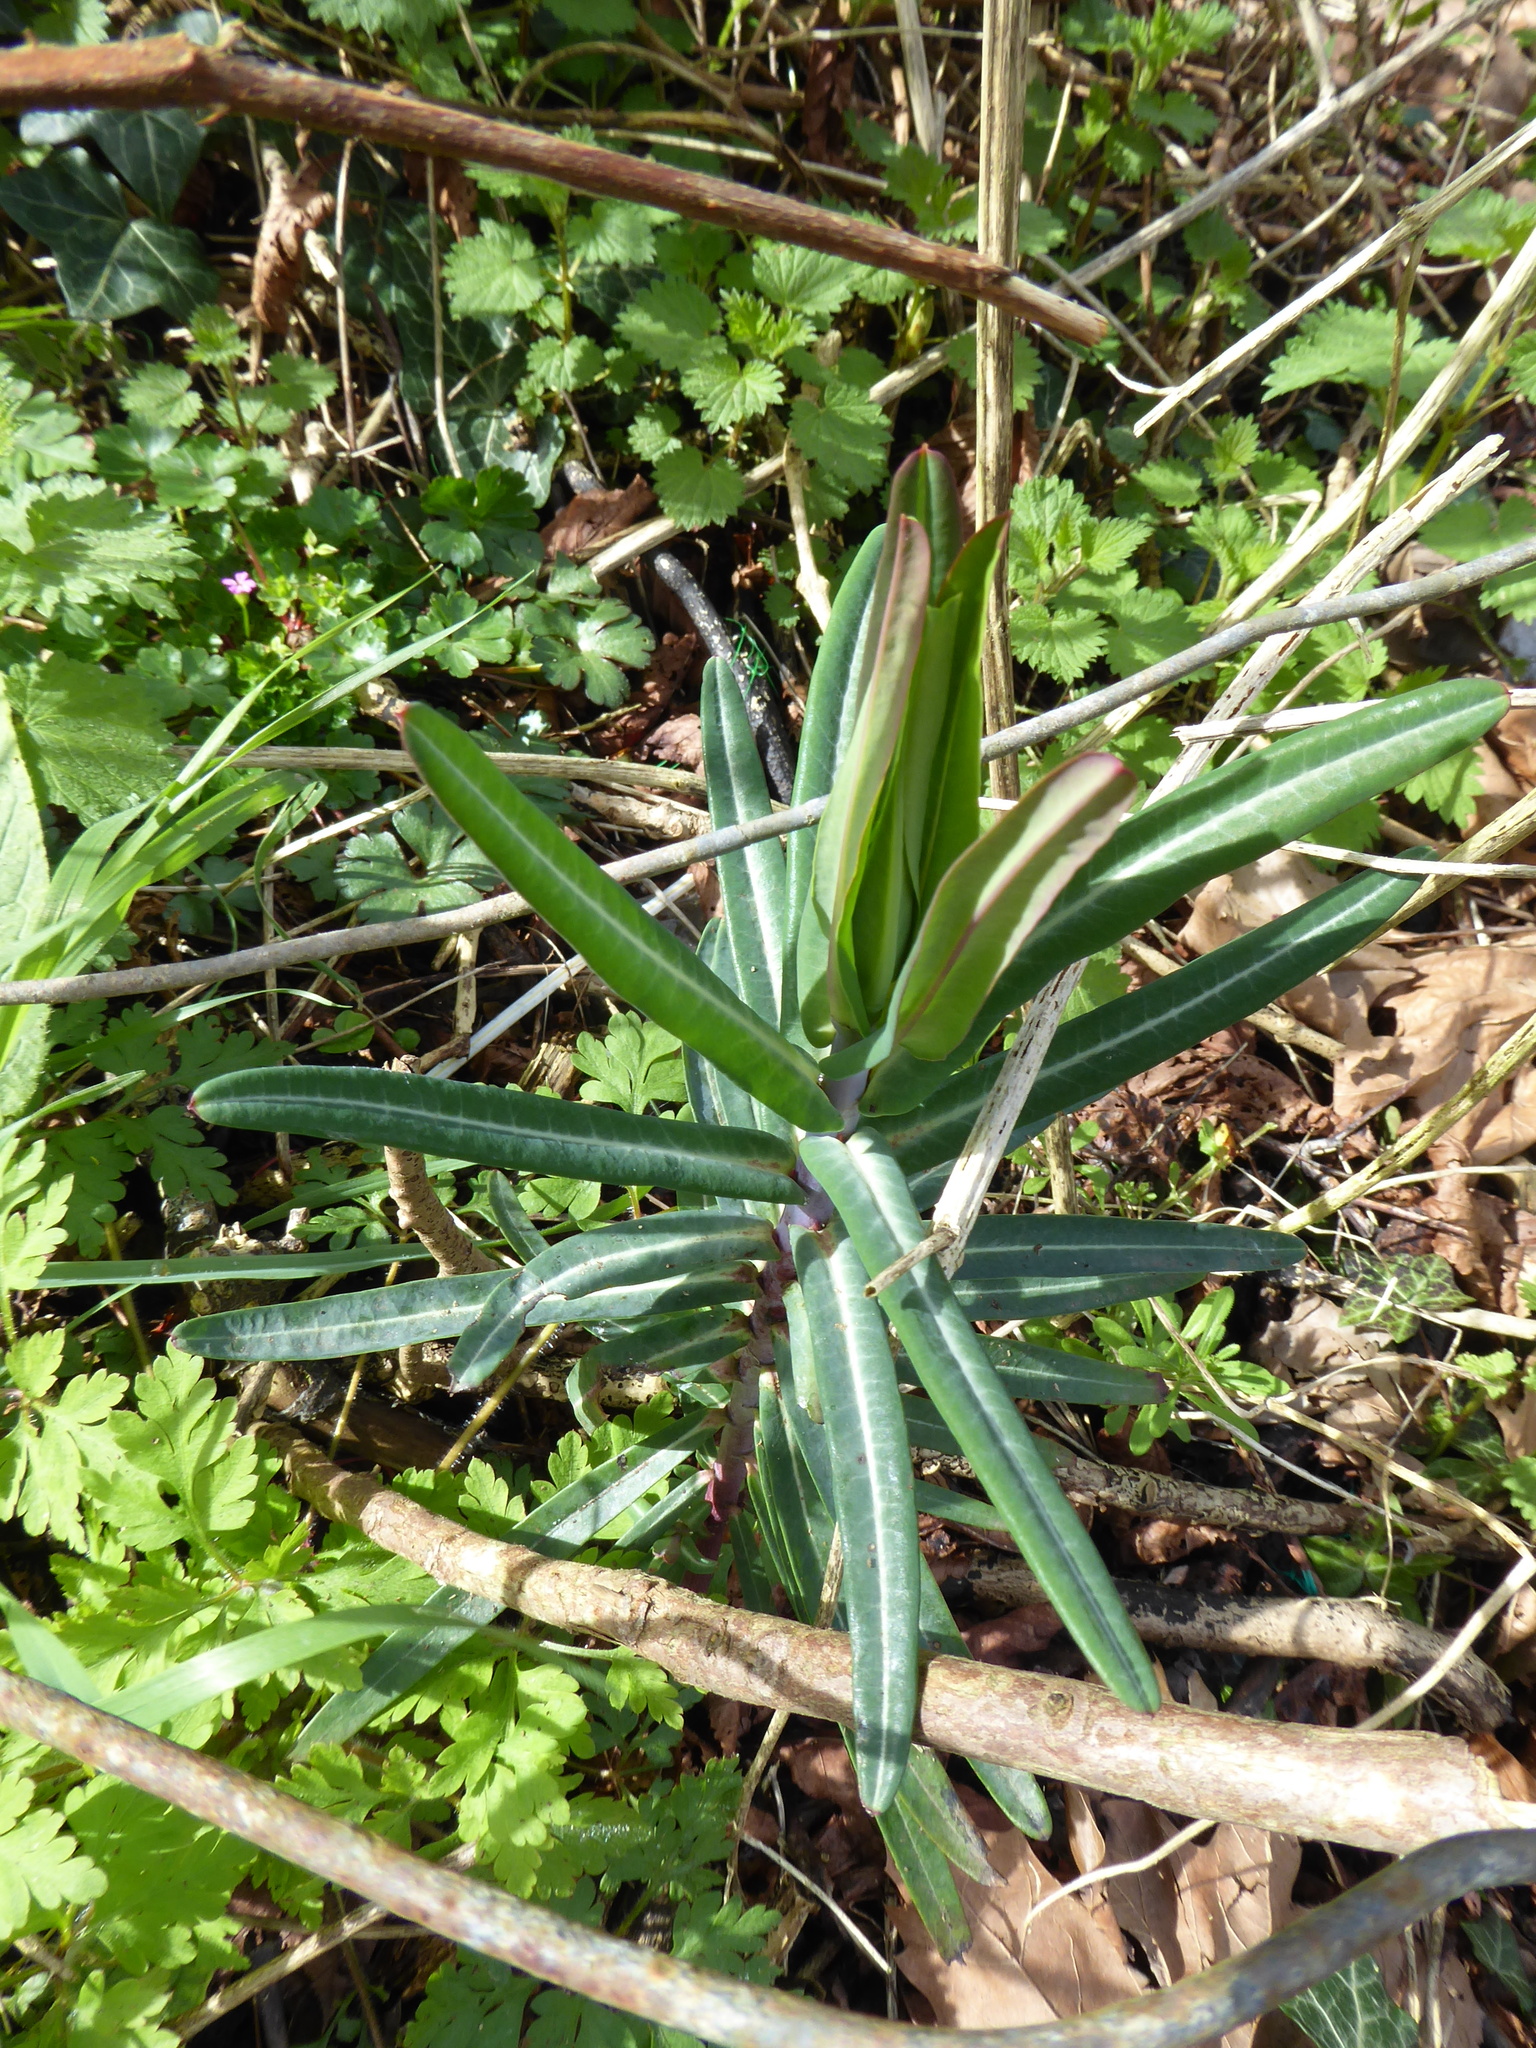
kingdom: Plantae
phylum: Tracheophyta
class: Magnoliopsida
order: Malpighiales
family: Euphorbiaceae
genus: Euphorbia
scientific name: Euphorbia lathyris
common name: Caper spurge
